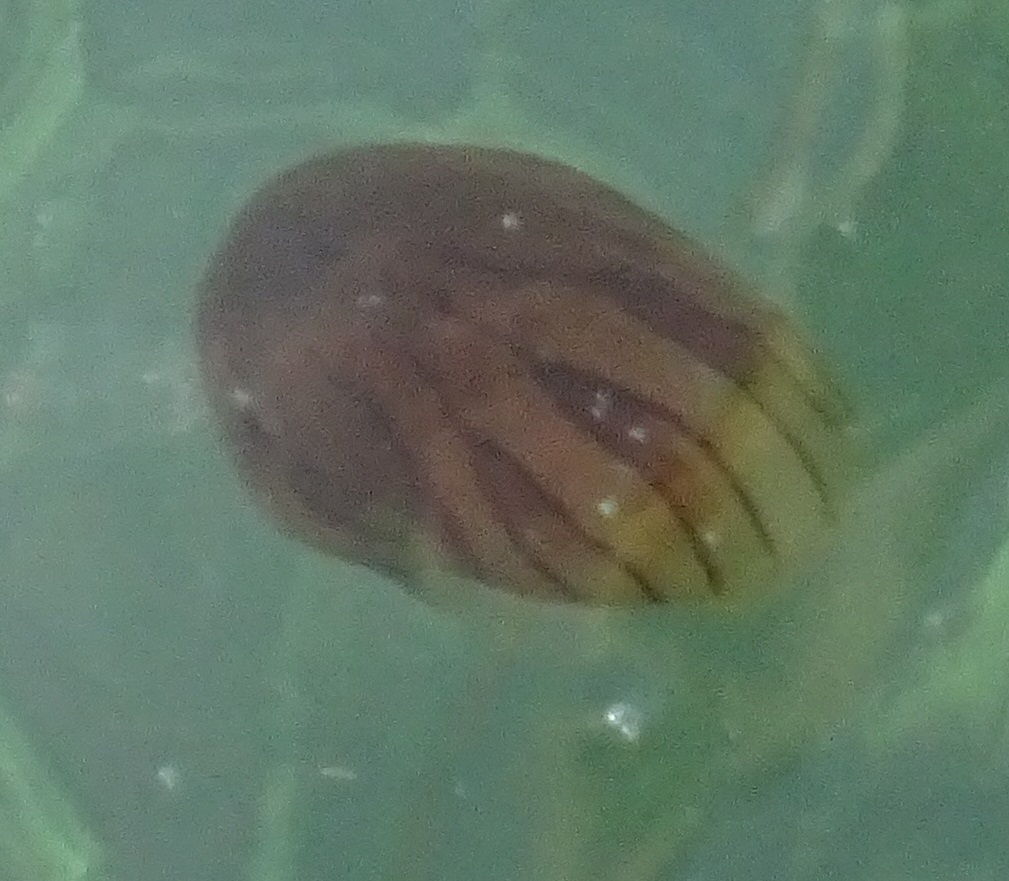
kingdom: Animalia
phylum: Cnidaria
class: Scyphozoa
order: Semaeostomeae
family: Pelagiidae
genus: Chrysaora
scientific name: Chrysaora hysoscella
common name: Compass jellyfish
